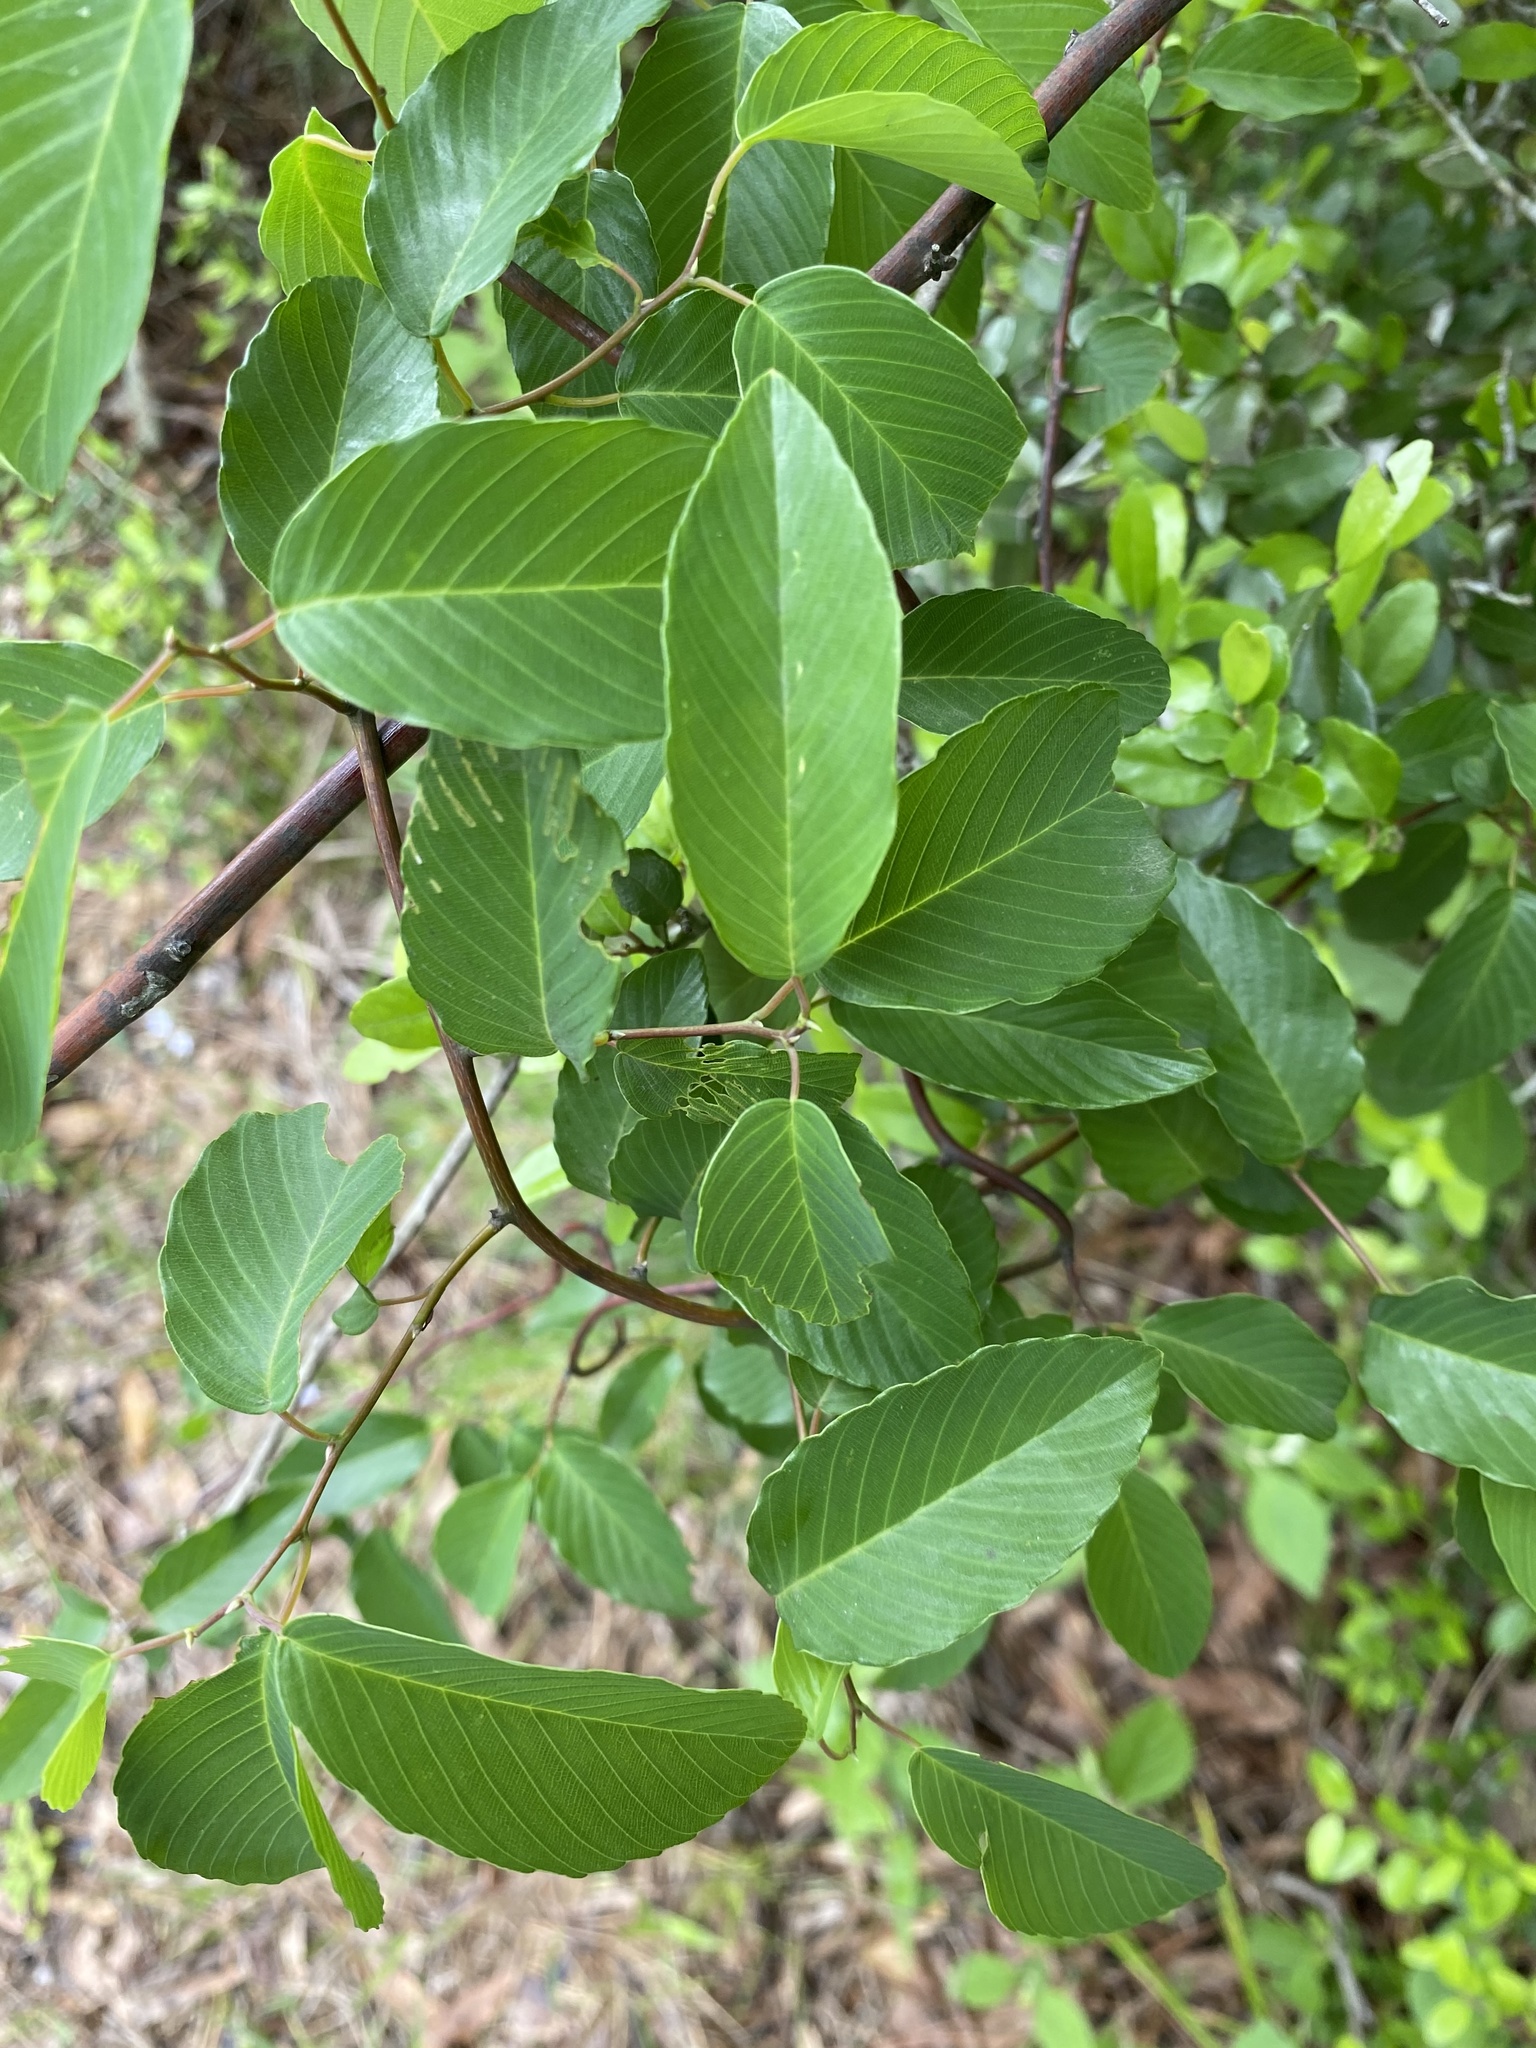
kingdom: Plantae
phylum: Tracheophyta
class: Magnoliopsida
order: Rosales
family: Rhamnaceae
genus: Berchemia
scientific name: Berchemia scandens
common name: Supplejack
